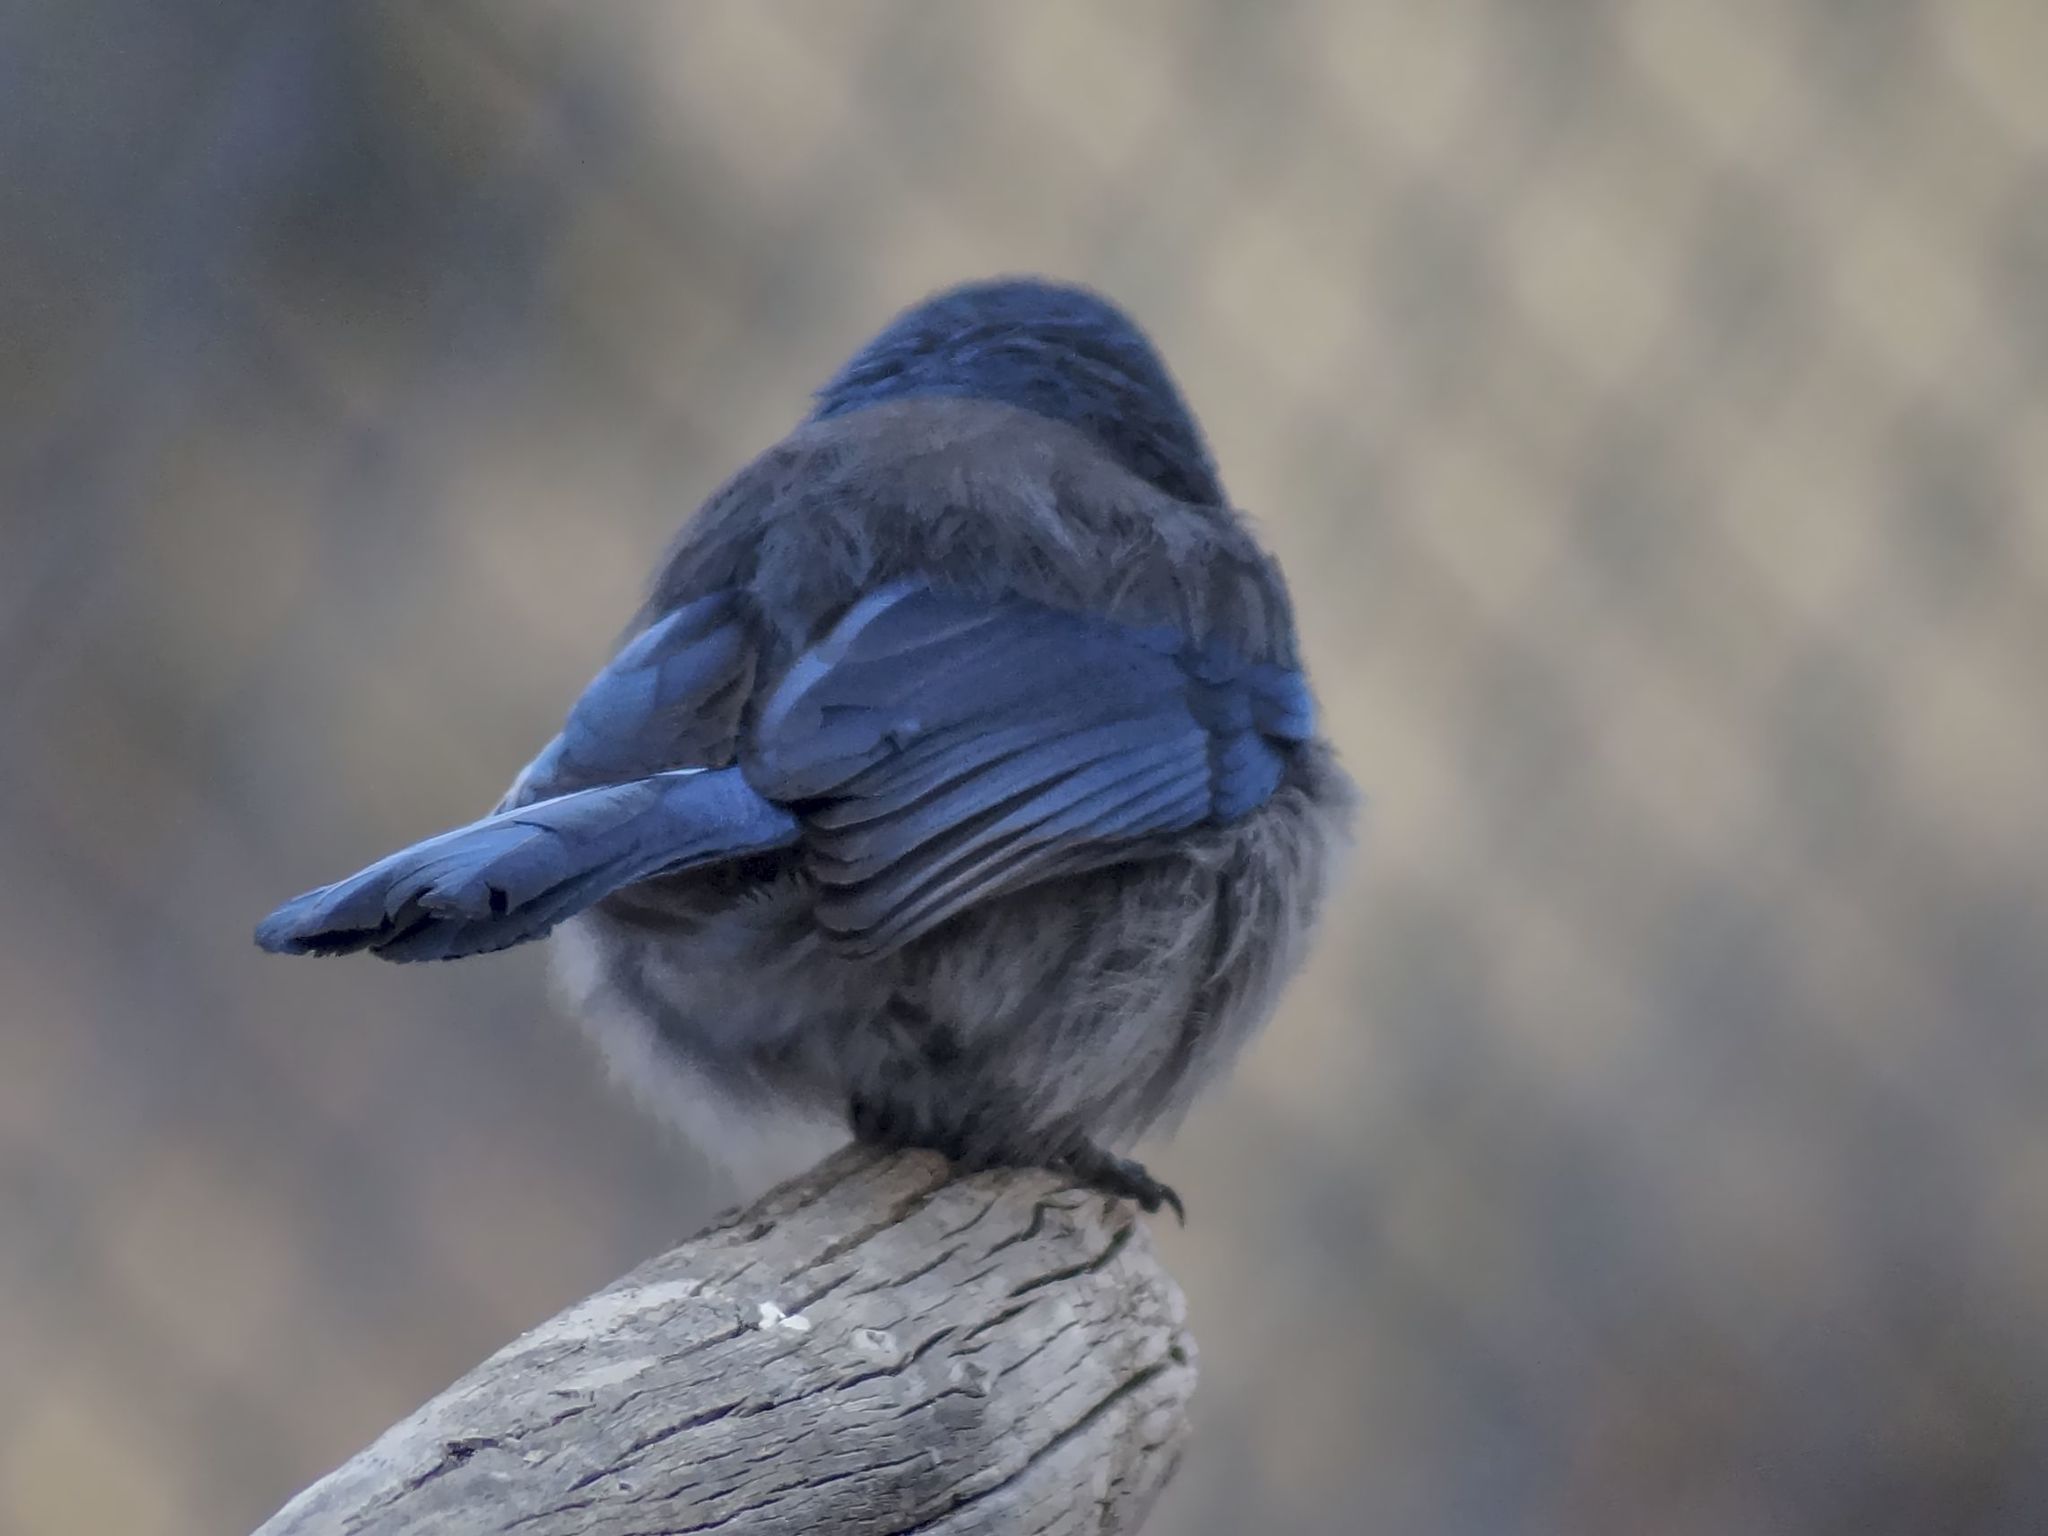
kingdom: Animalia
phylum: Chordata
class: Aves
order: Passeriformes
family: Corvidae
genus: Aphelocoma
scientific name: Aphelocoma woodhouseii
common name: Woodhouse's scrub-jay
